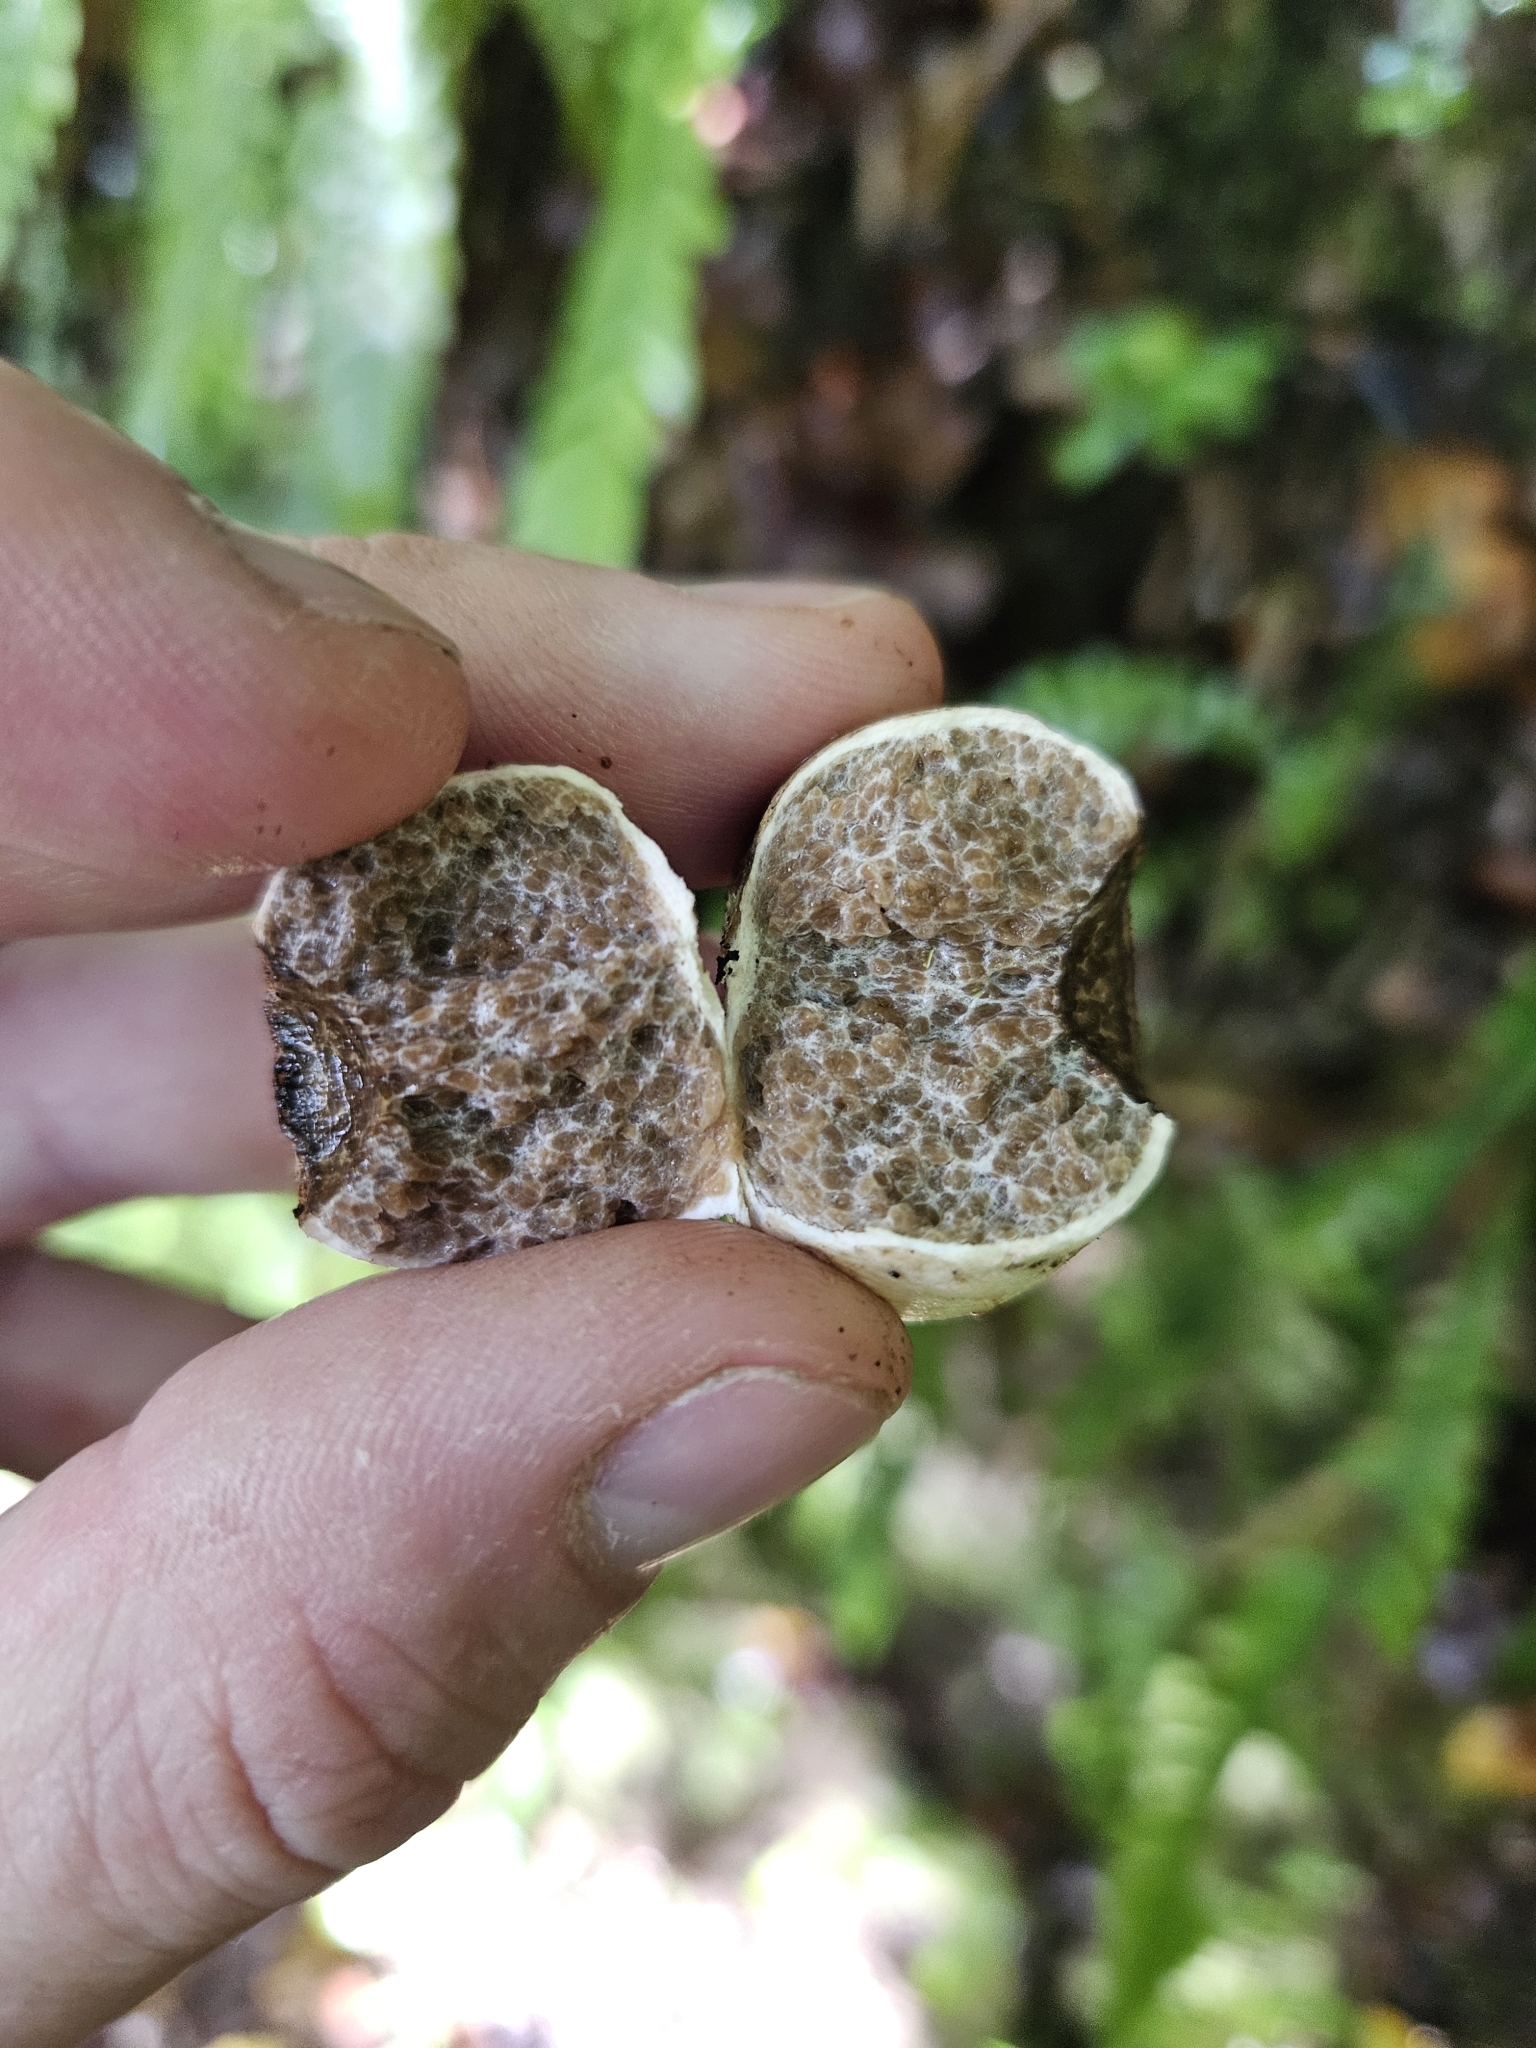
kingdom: Fungi
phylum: Basidiomycota
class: Agaricomycetes
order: Boletales
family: Boletaceae
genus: Octaviania
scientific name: Octaviania tasmanica
